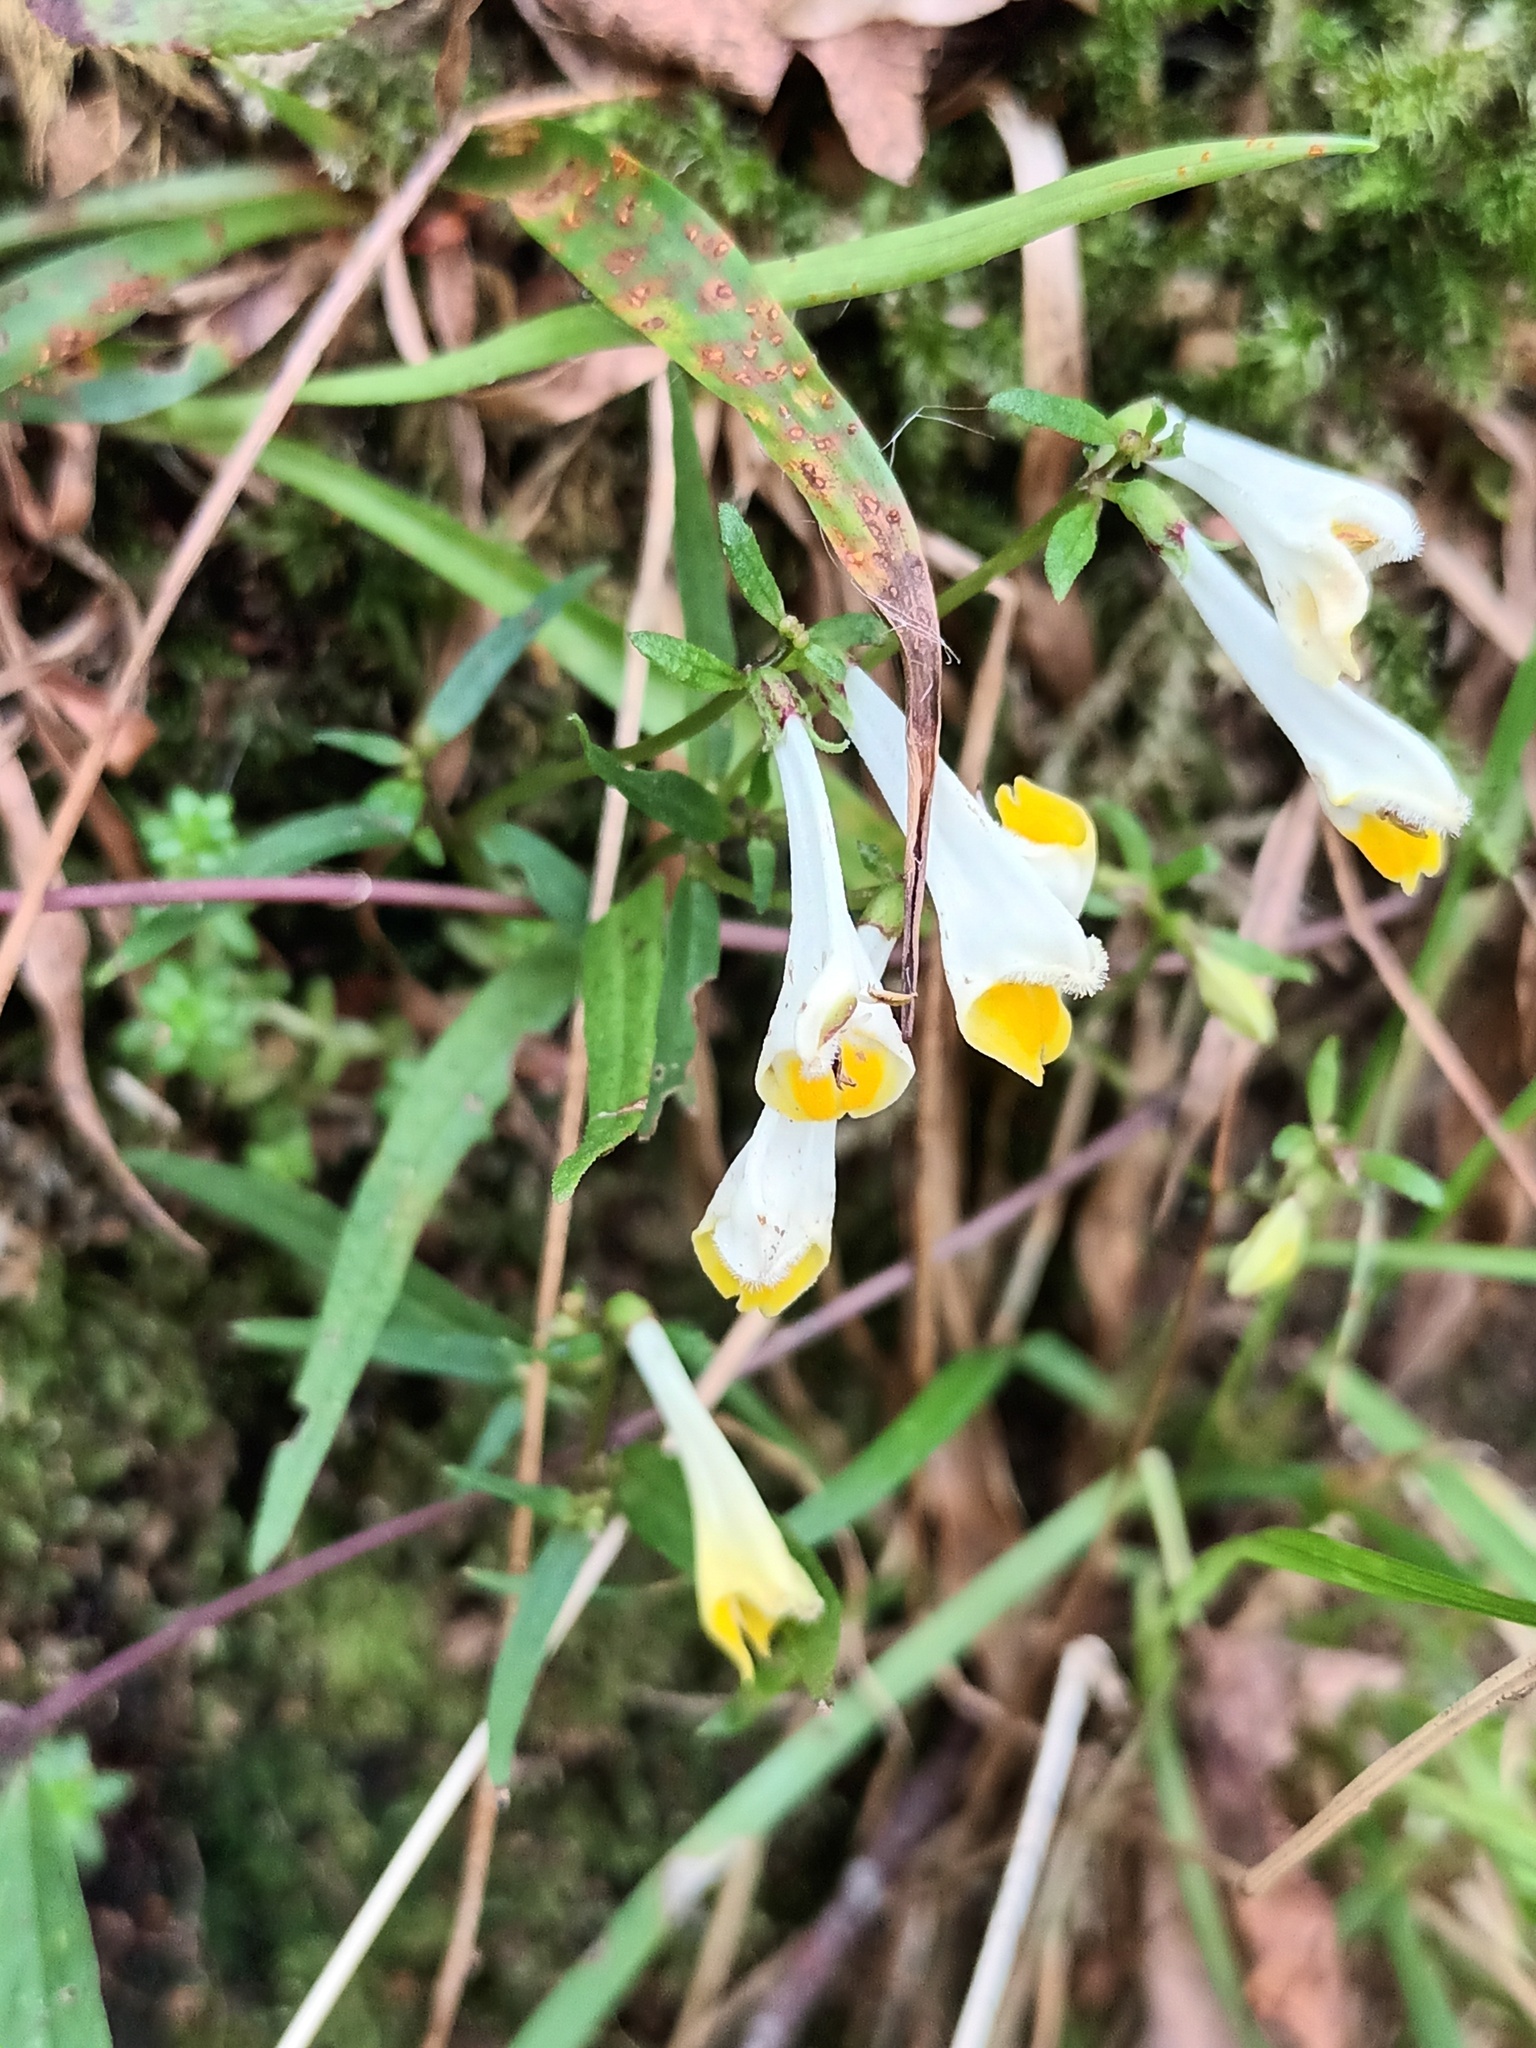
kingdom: Plantae
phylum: Tracheophyta
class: Magnoliopsida
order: Lamiales
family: Orobanchaceae
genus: Melampyrum
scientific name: Melampyrum pratense
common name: Common cow-wheat
